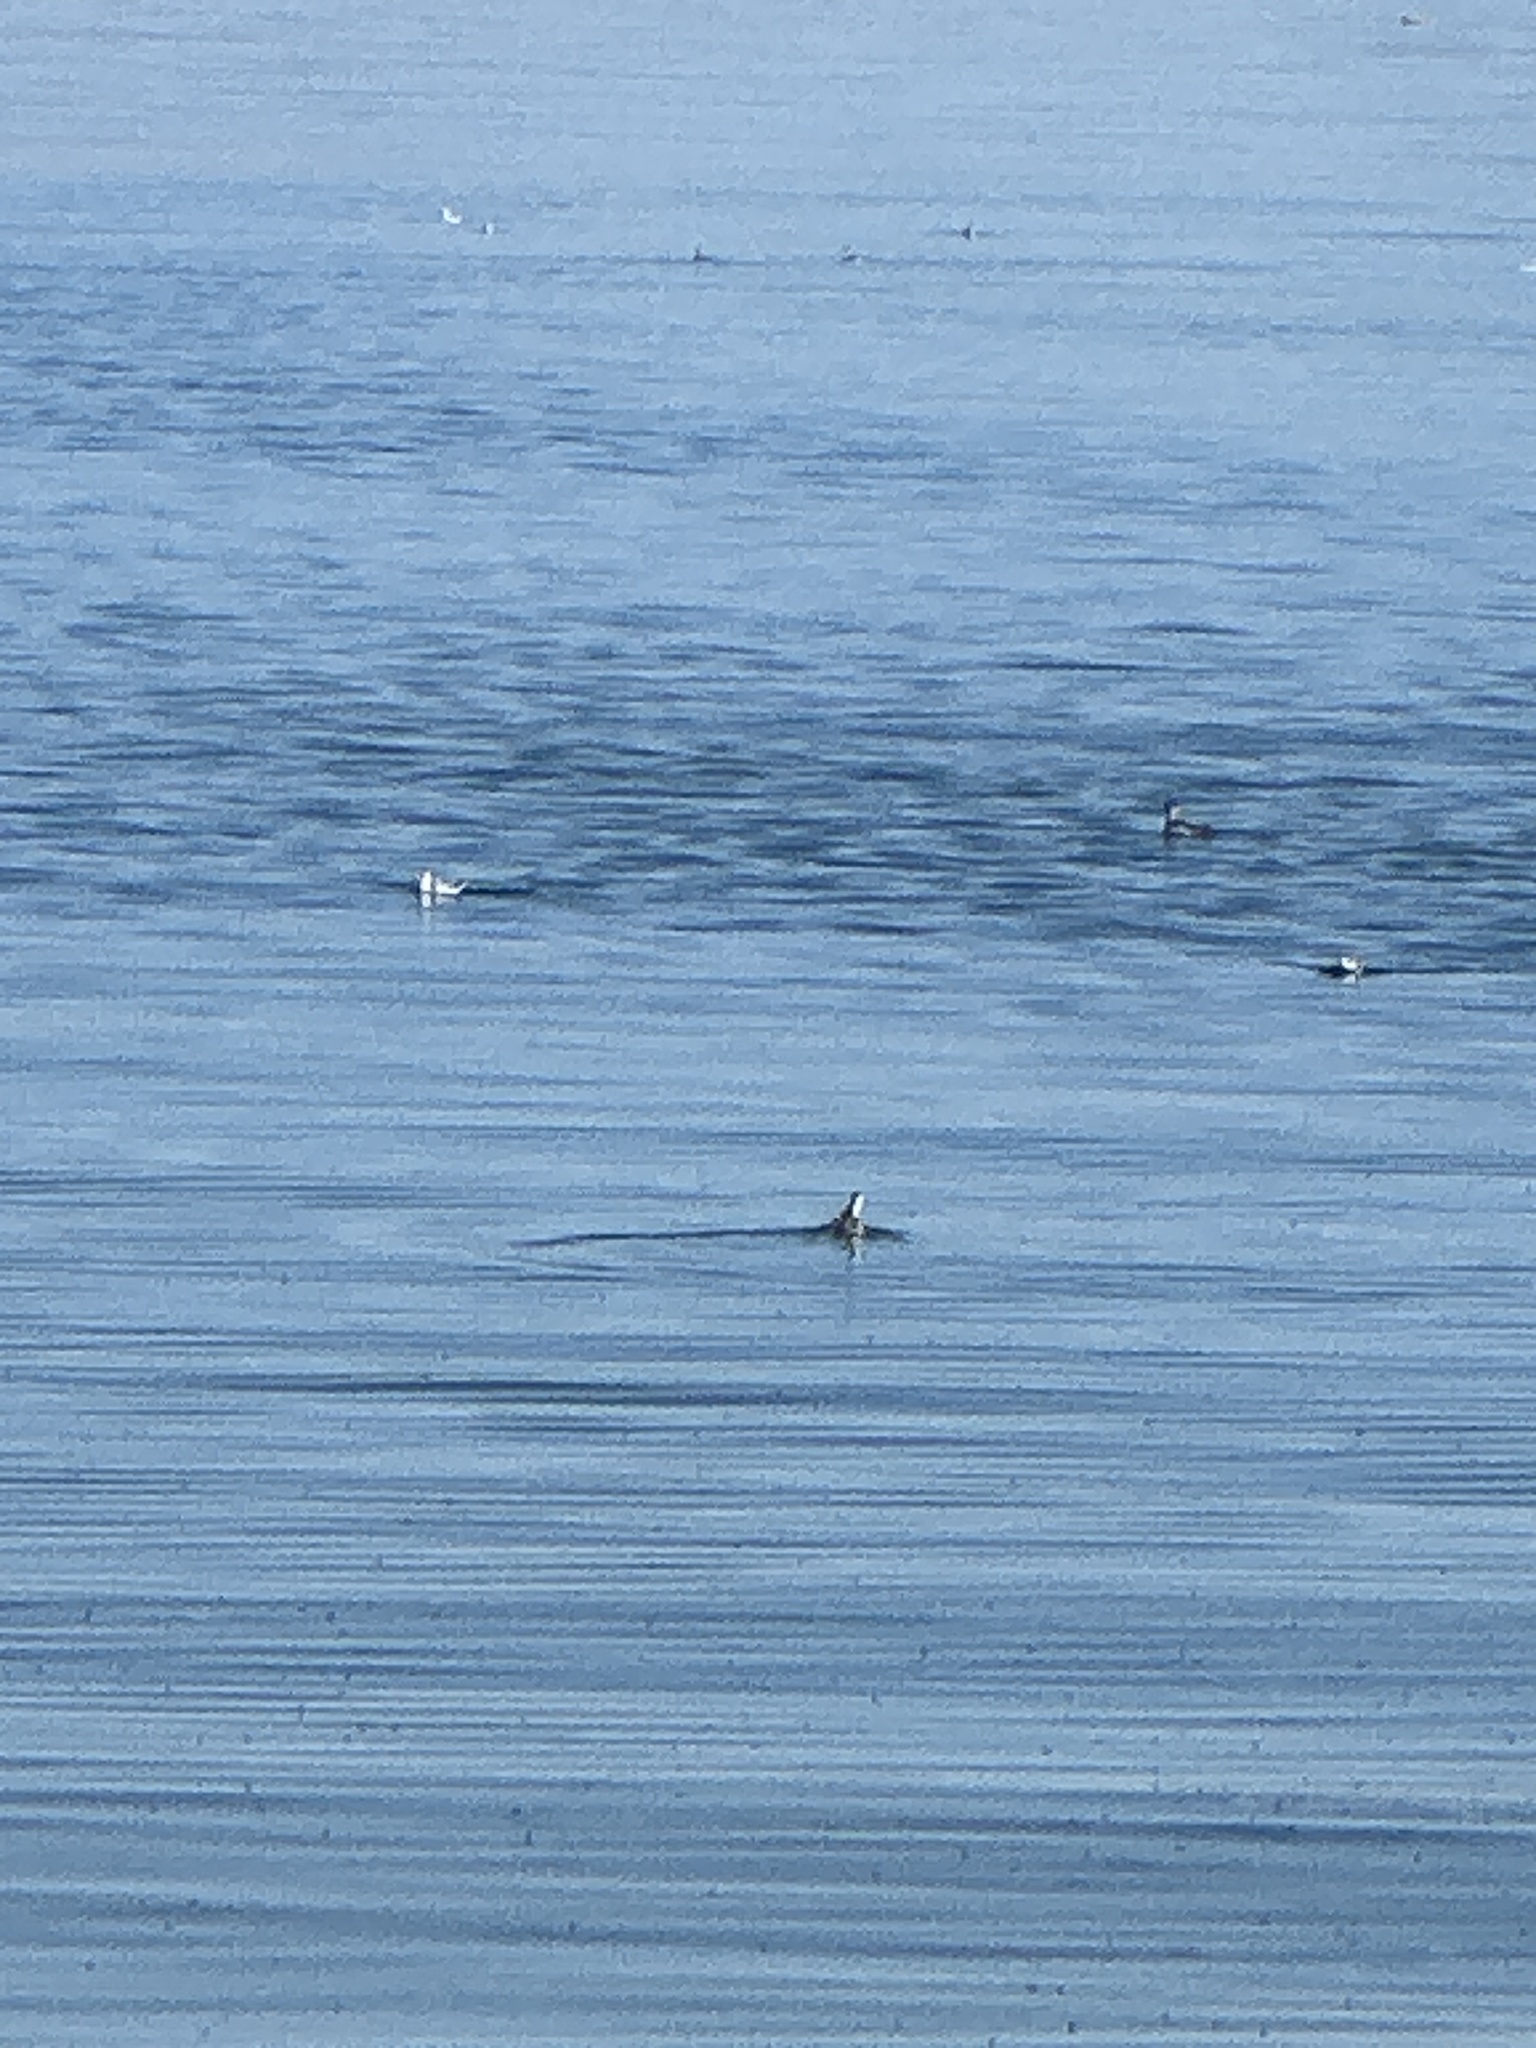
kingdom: Animalia
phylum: Chordata
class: Aves
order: Charadriiformes
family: Scolopacidae
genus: Phalaropus
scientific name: Phalaropus lobatus
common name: Red-necked phalarope
